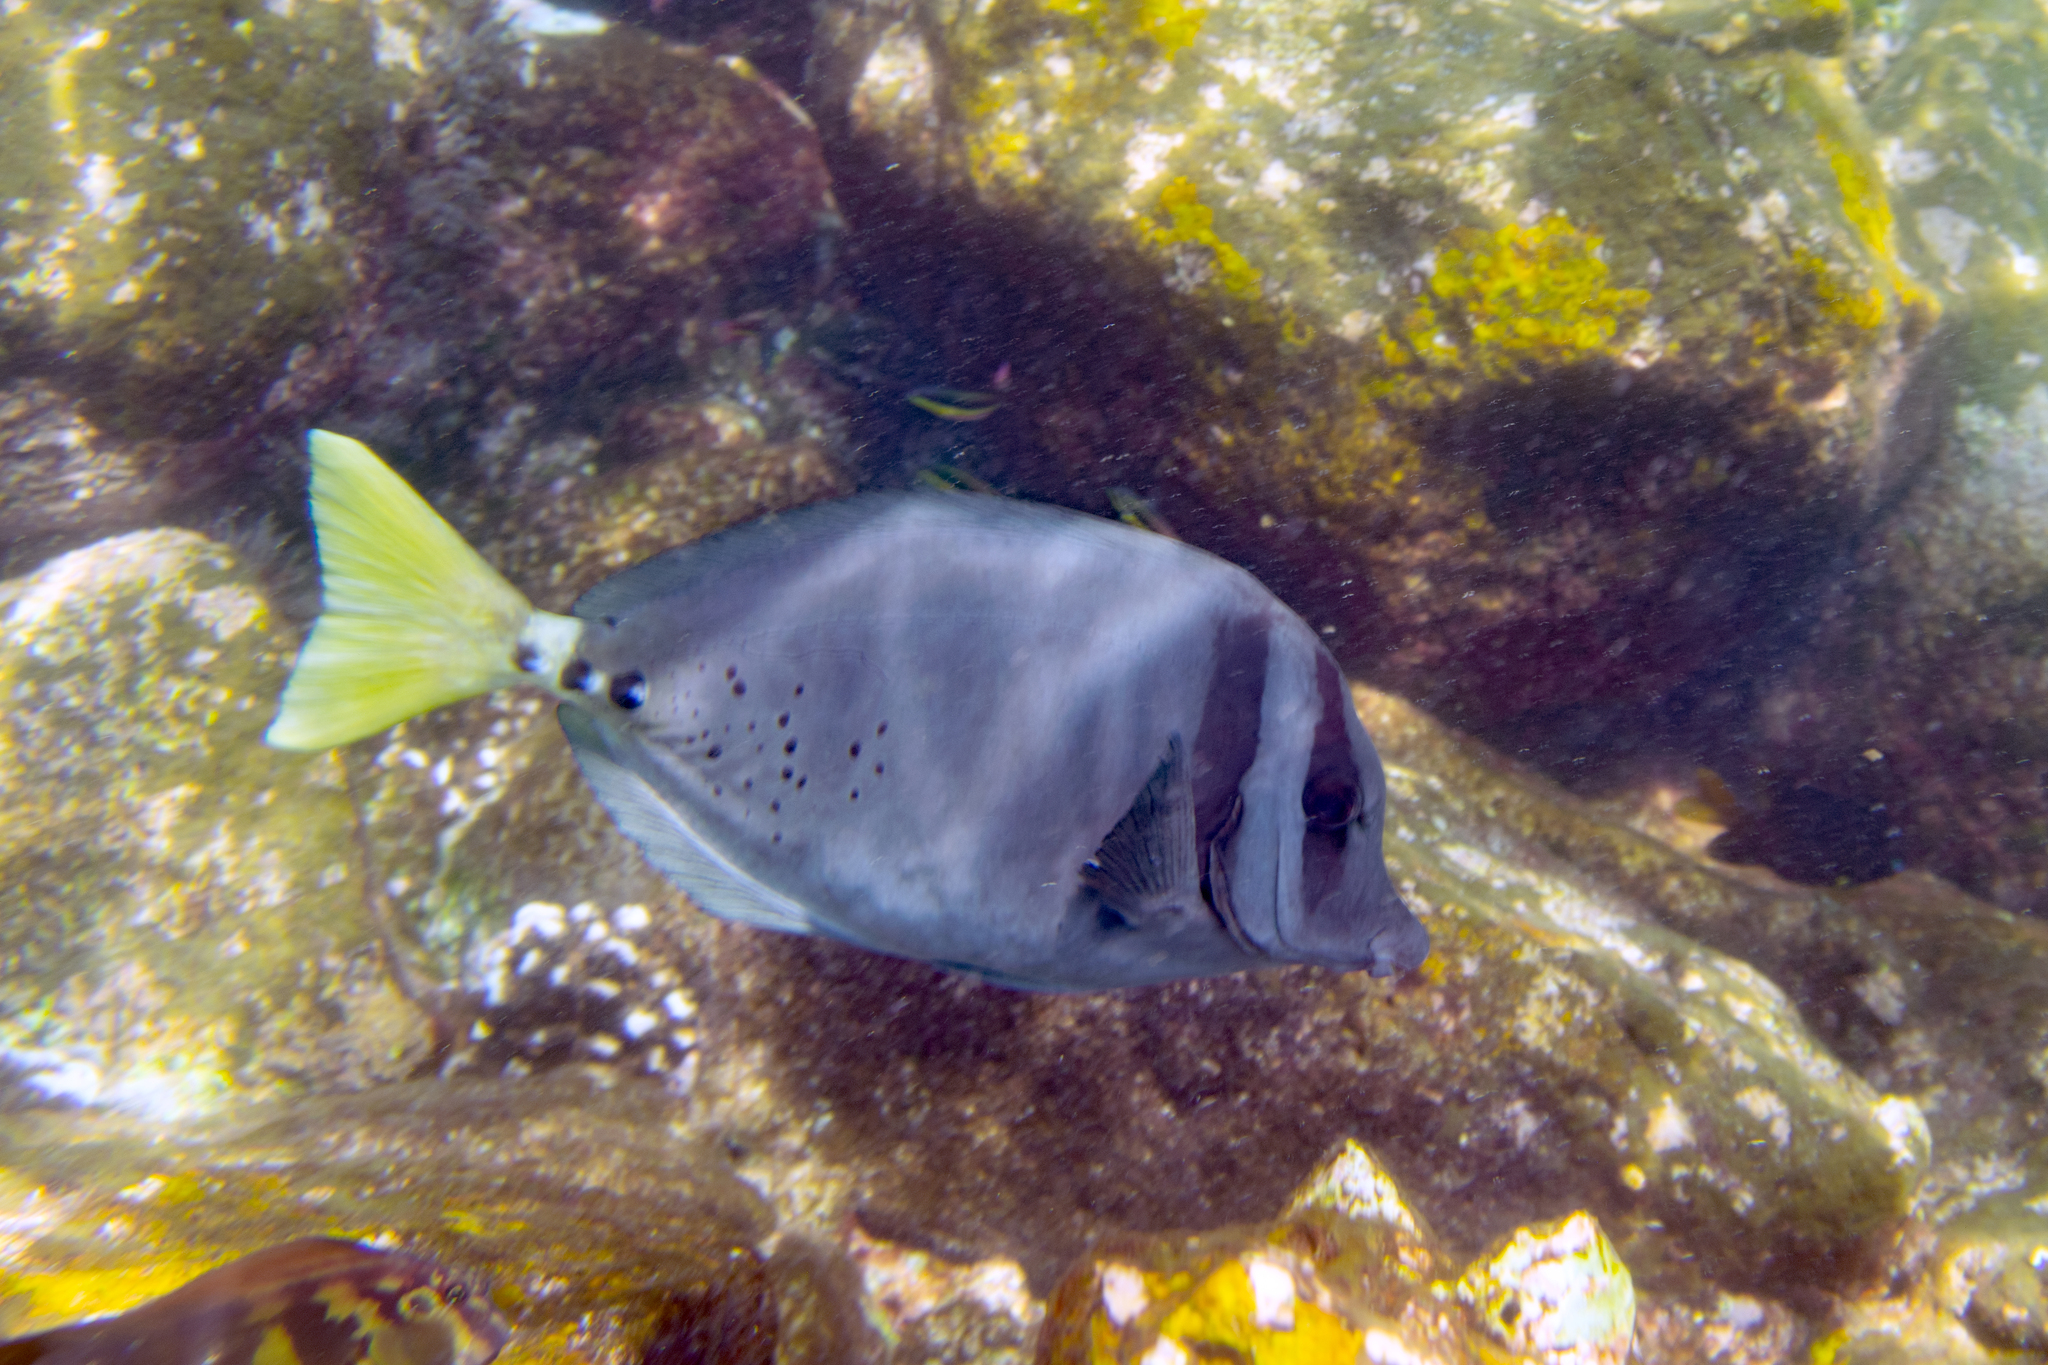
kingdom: Animalia
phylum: Chordata
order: Perciformes
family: Acanthuridae
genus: Prionurus
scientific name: Prionurus laticlavius
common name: Razor surgeonfish
